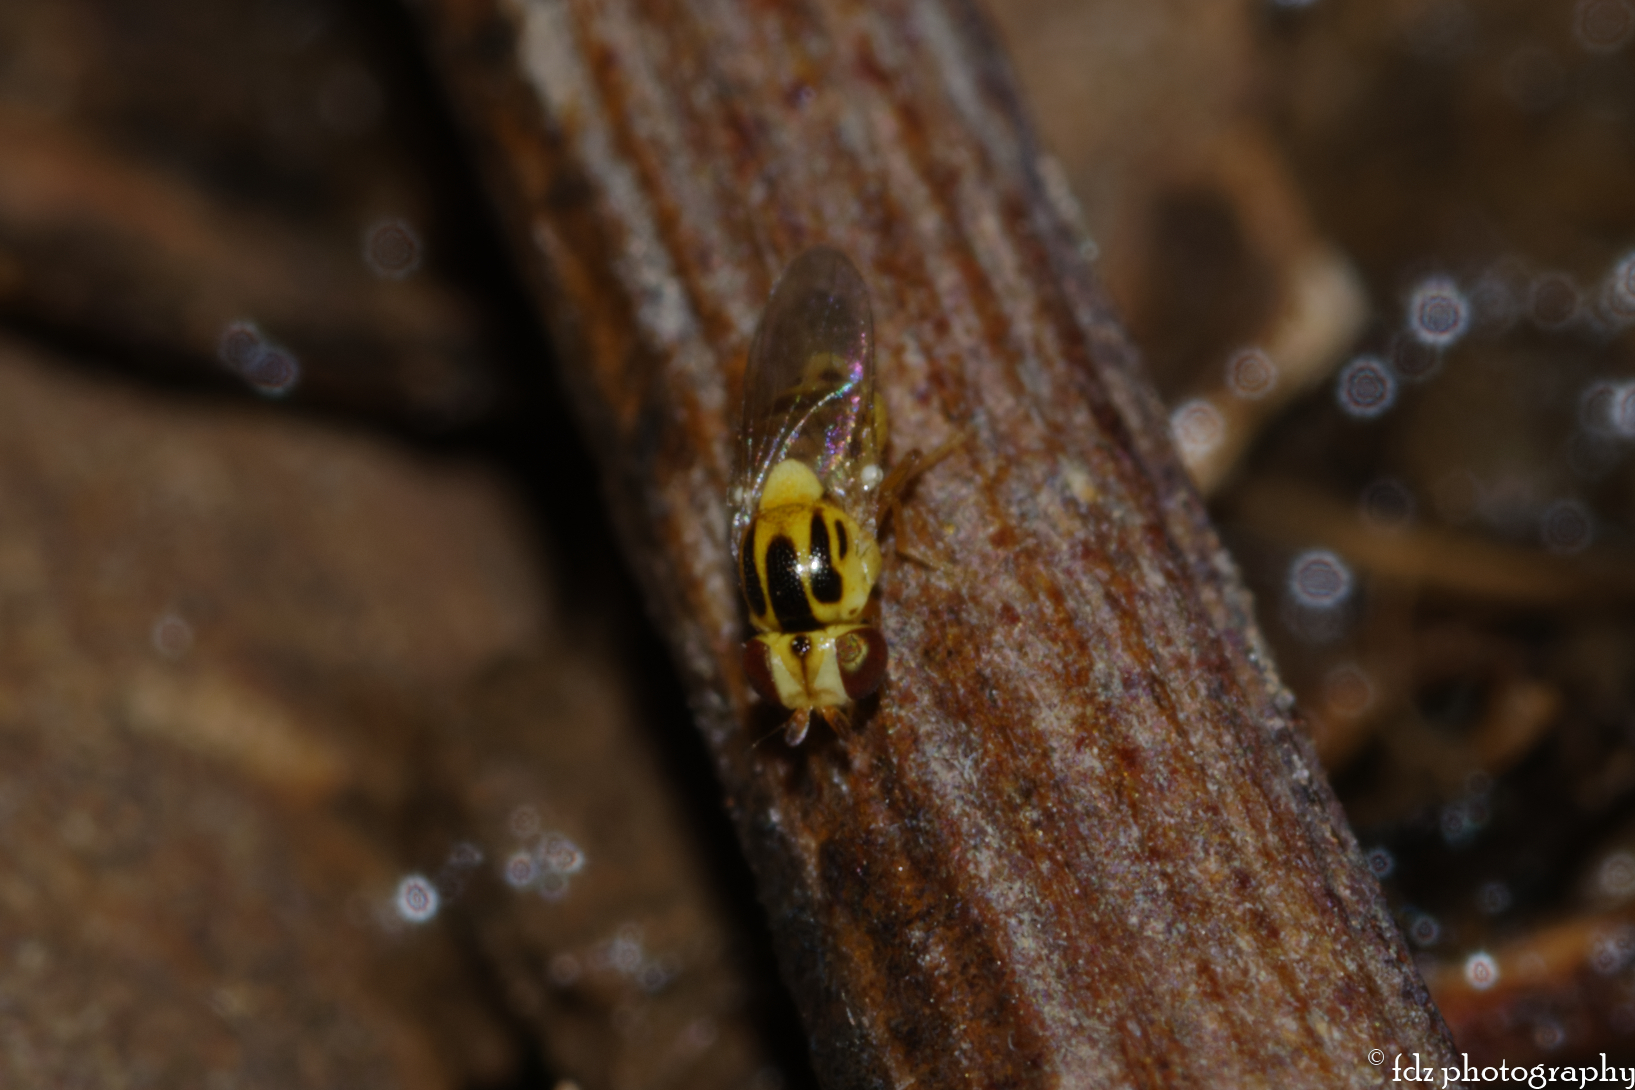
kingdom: Animalia
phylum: Arthropoda
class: Insecta
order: Diptera
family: Chloropidae
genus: Thaumatomyia
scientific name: Thaumatomyia notata
